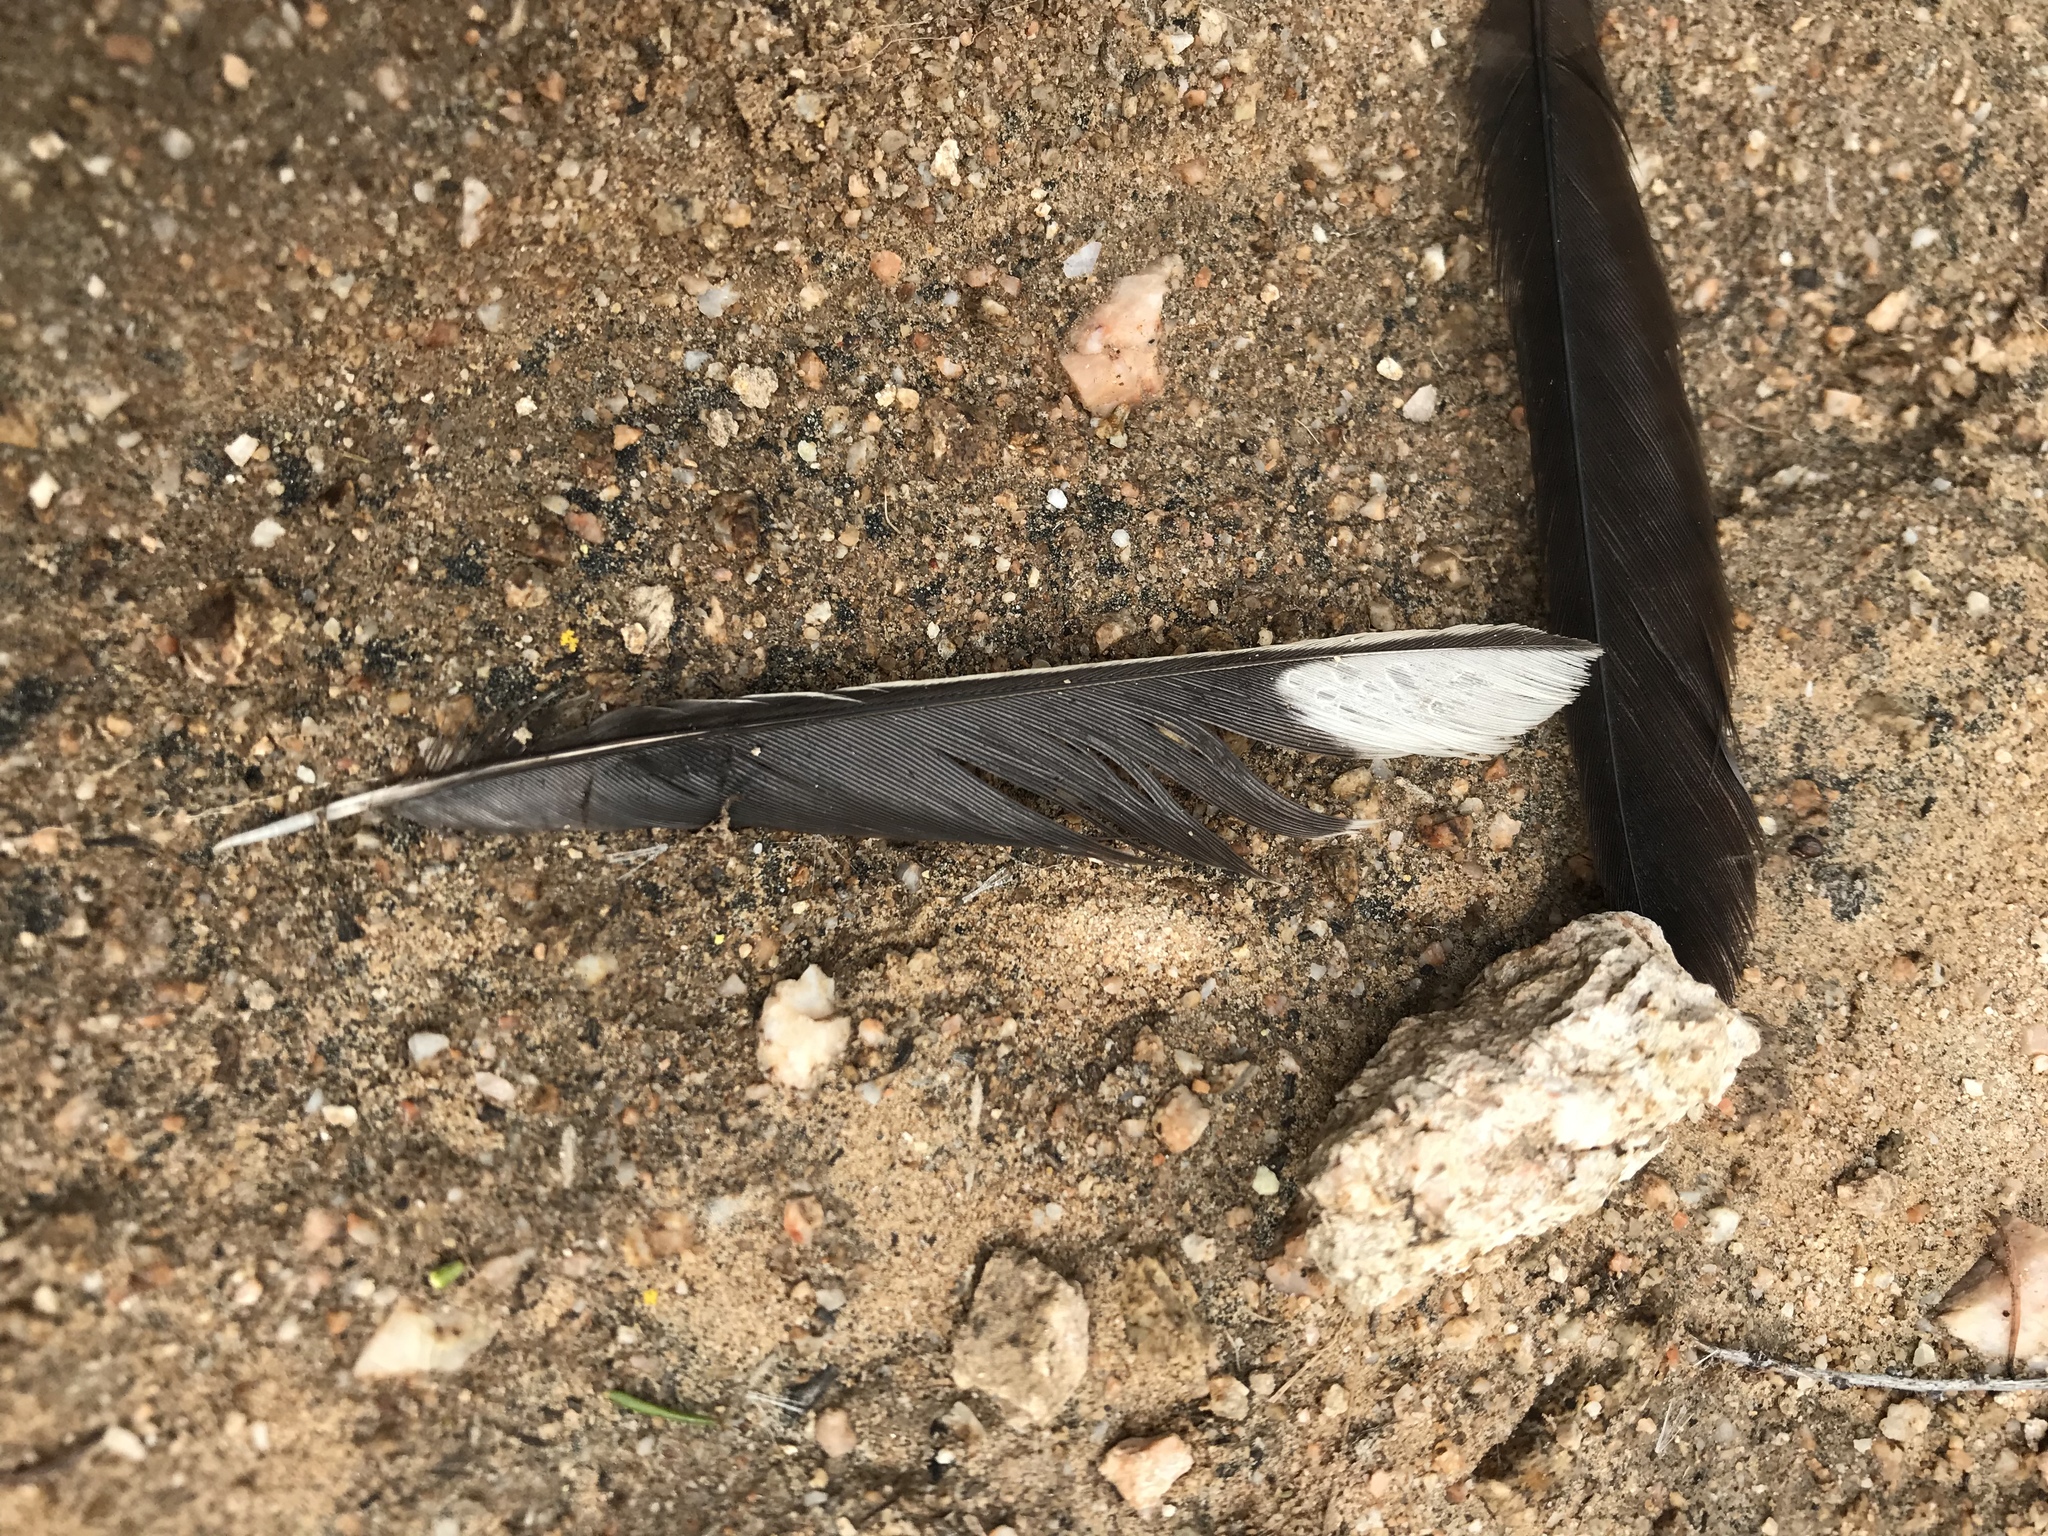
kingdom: Animalia
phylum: Chordata
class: Aves
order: Passeriformes
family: Passerellidae
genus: Pipilo
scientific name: Pipilo maculatus
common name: Spotted towhee
